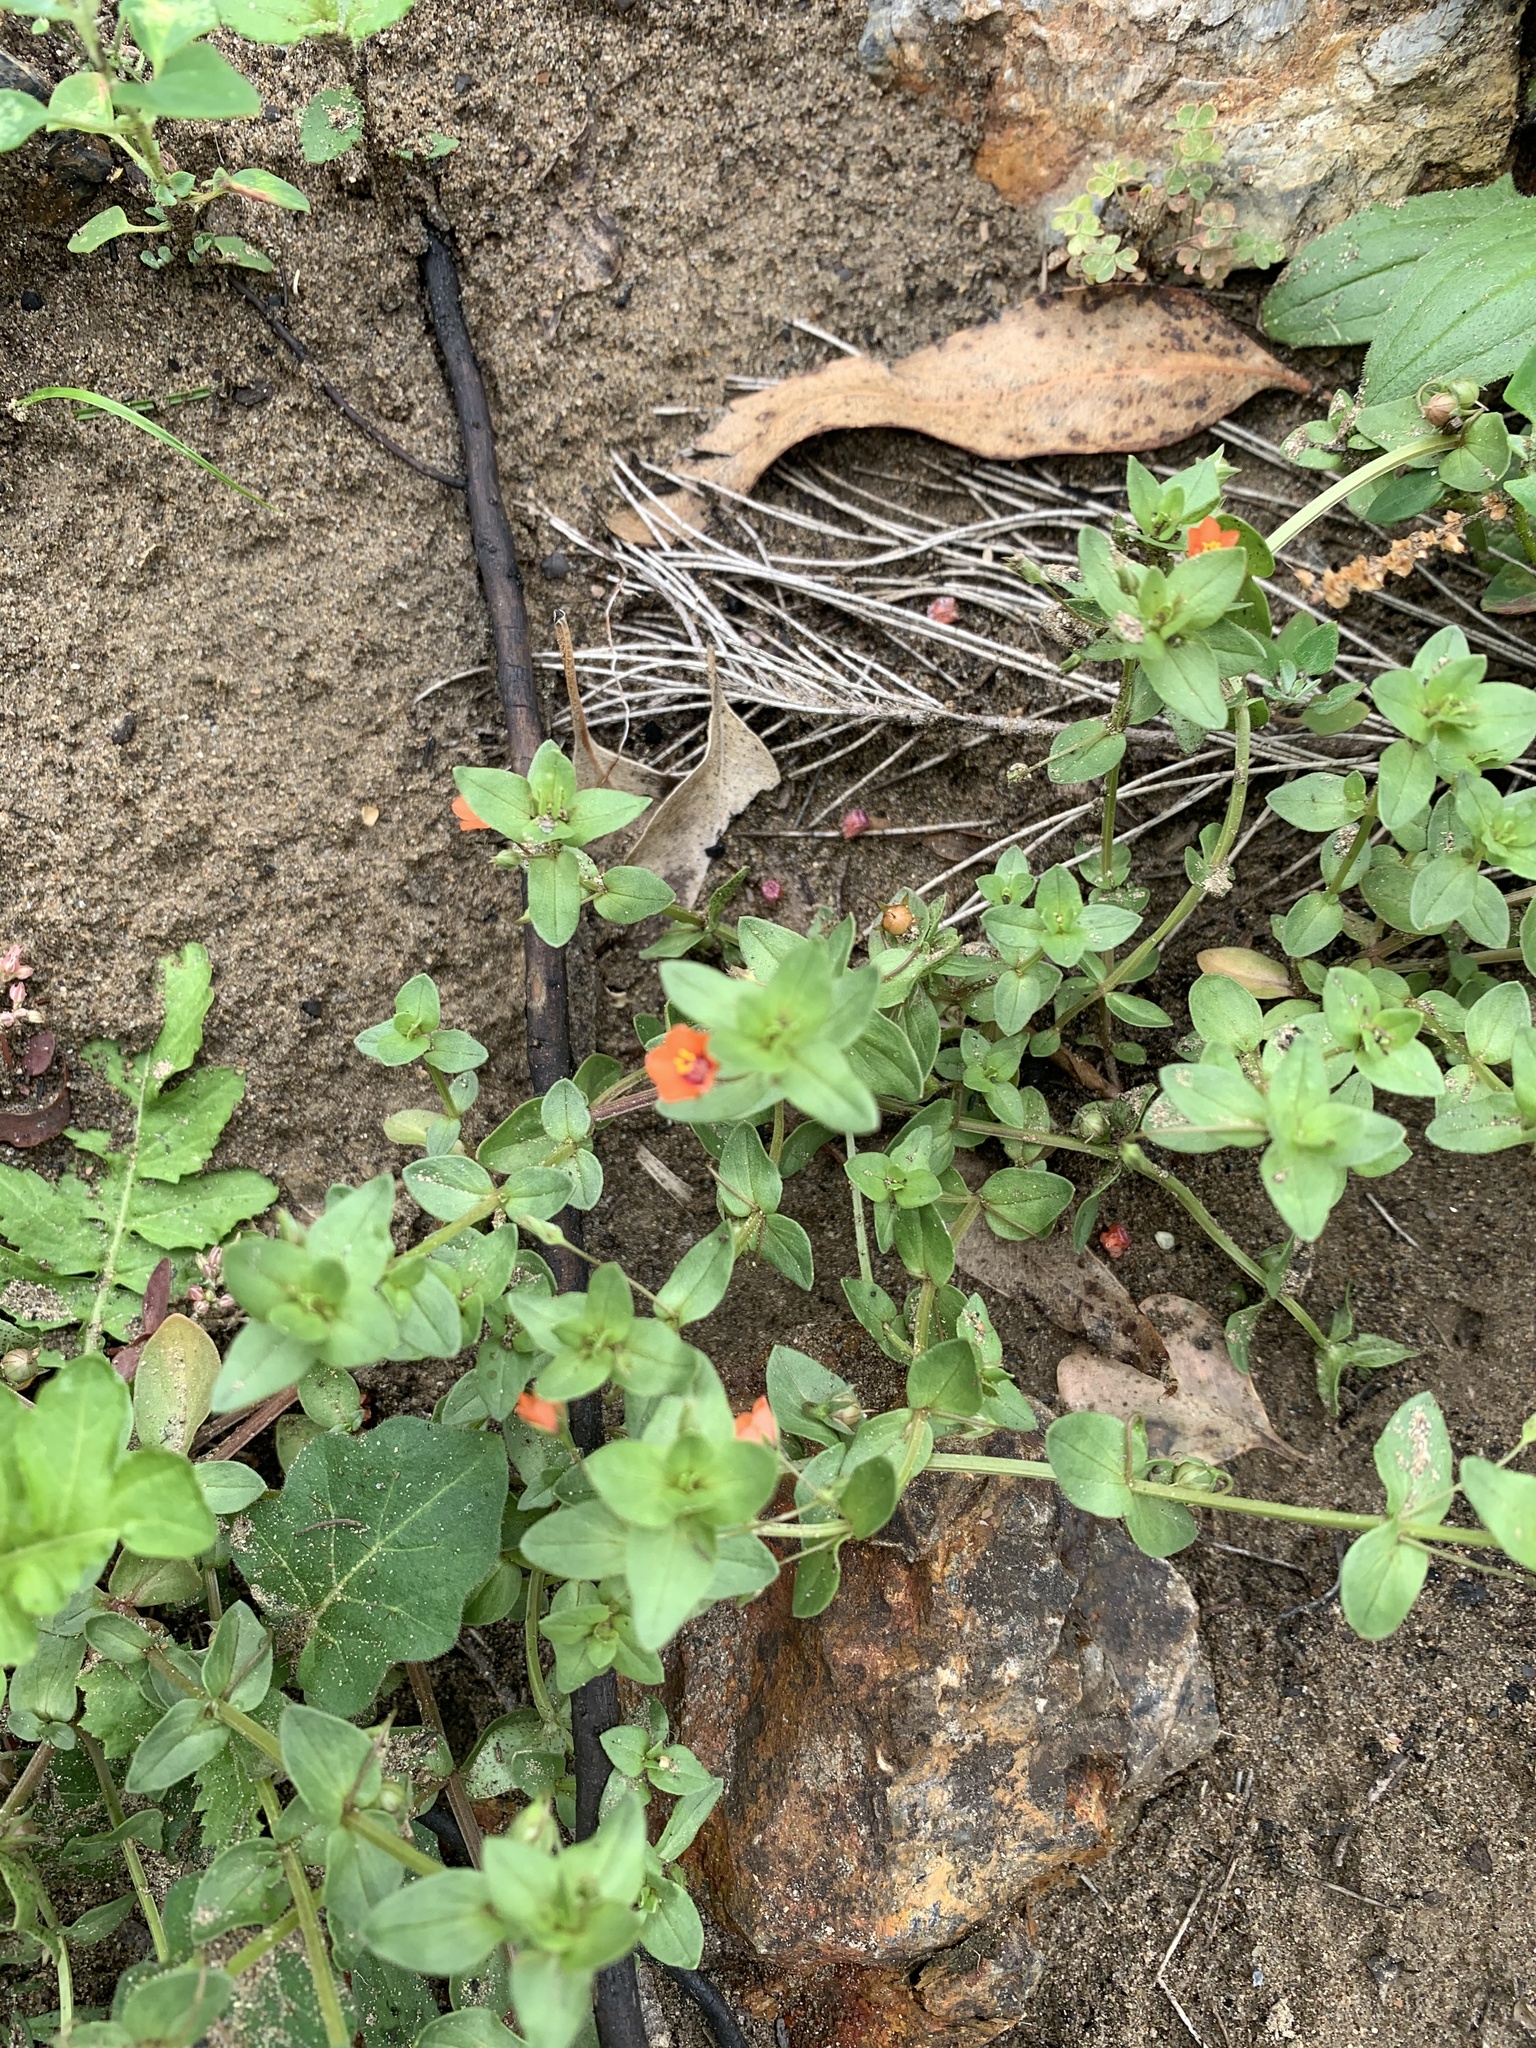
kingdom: Plantae
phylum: Tracheophyta
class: Magnoliopsida
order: Ericales
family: Primulaceae
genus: Lysimachia
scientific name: Lysimachia arvensis
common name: Scarlet pimpernel
